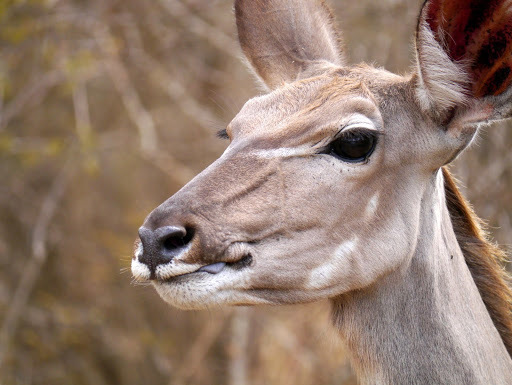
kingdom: Animalia
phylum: Chordata
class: Mammalia
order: Artiodactyla
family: Bovidae
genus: Tragelaphus
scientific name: Tragelaphus strepsiceros
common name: Greater kudu
